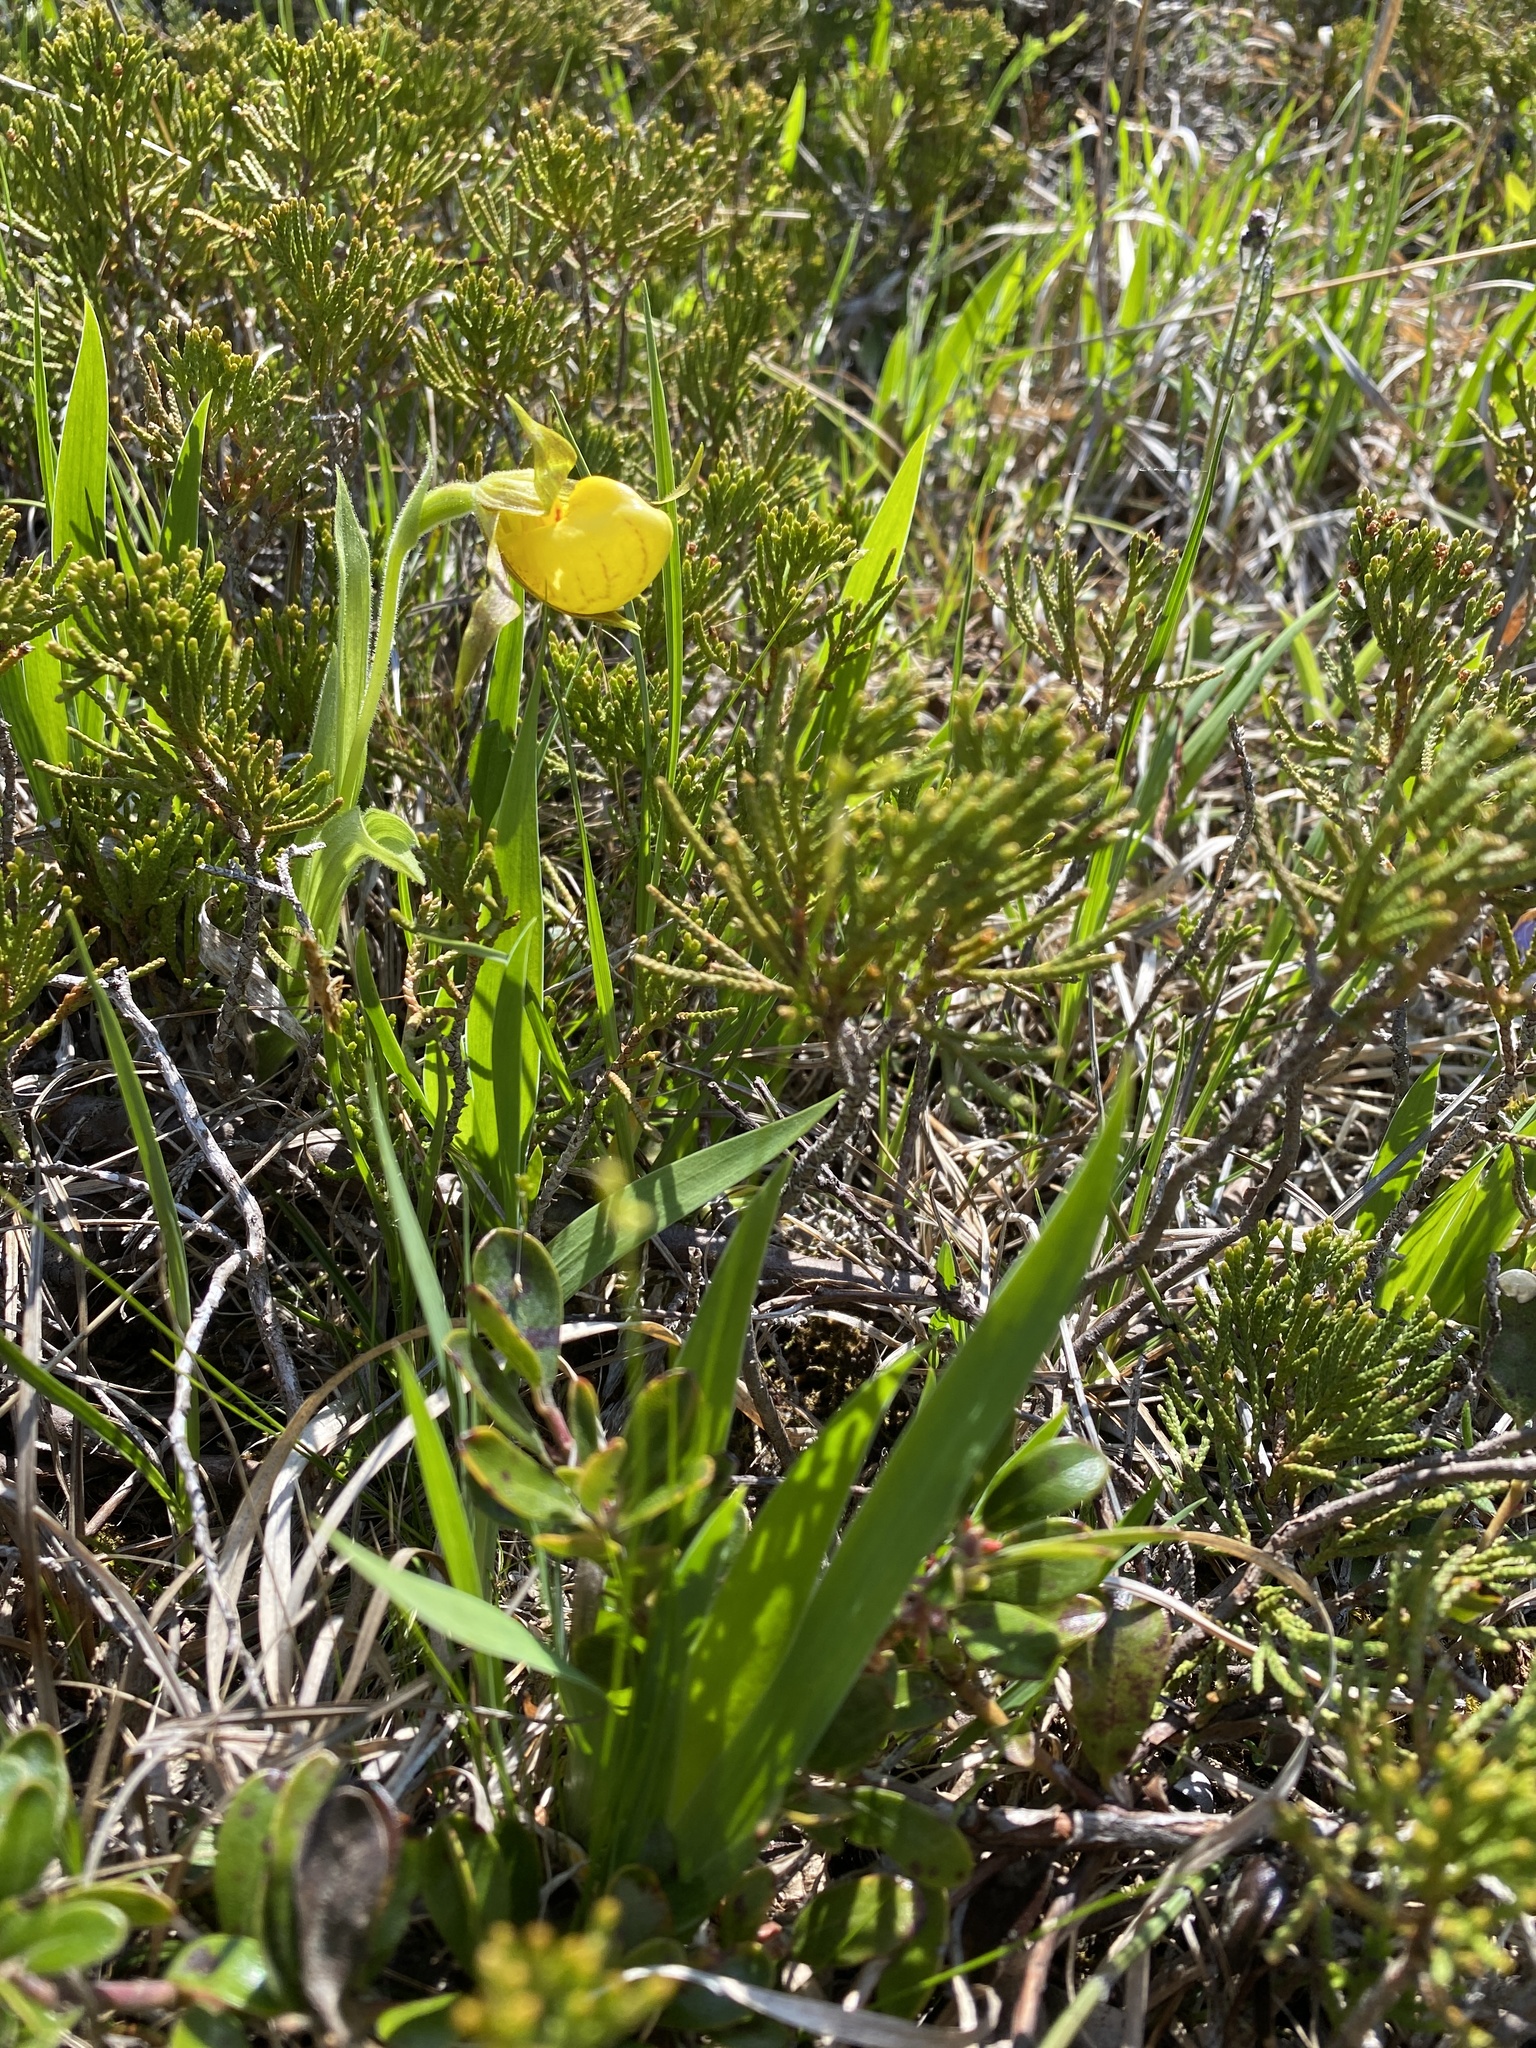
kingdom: Plantae
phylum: Tracheophyta
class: Liliopsida
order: Asparagales
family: Orchidaceae
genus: Cypripedium
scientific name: Cypripedium parviflorum
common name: American yellow lady's-slipper
